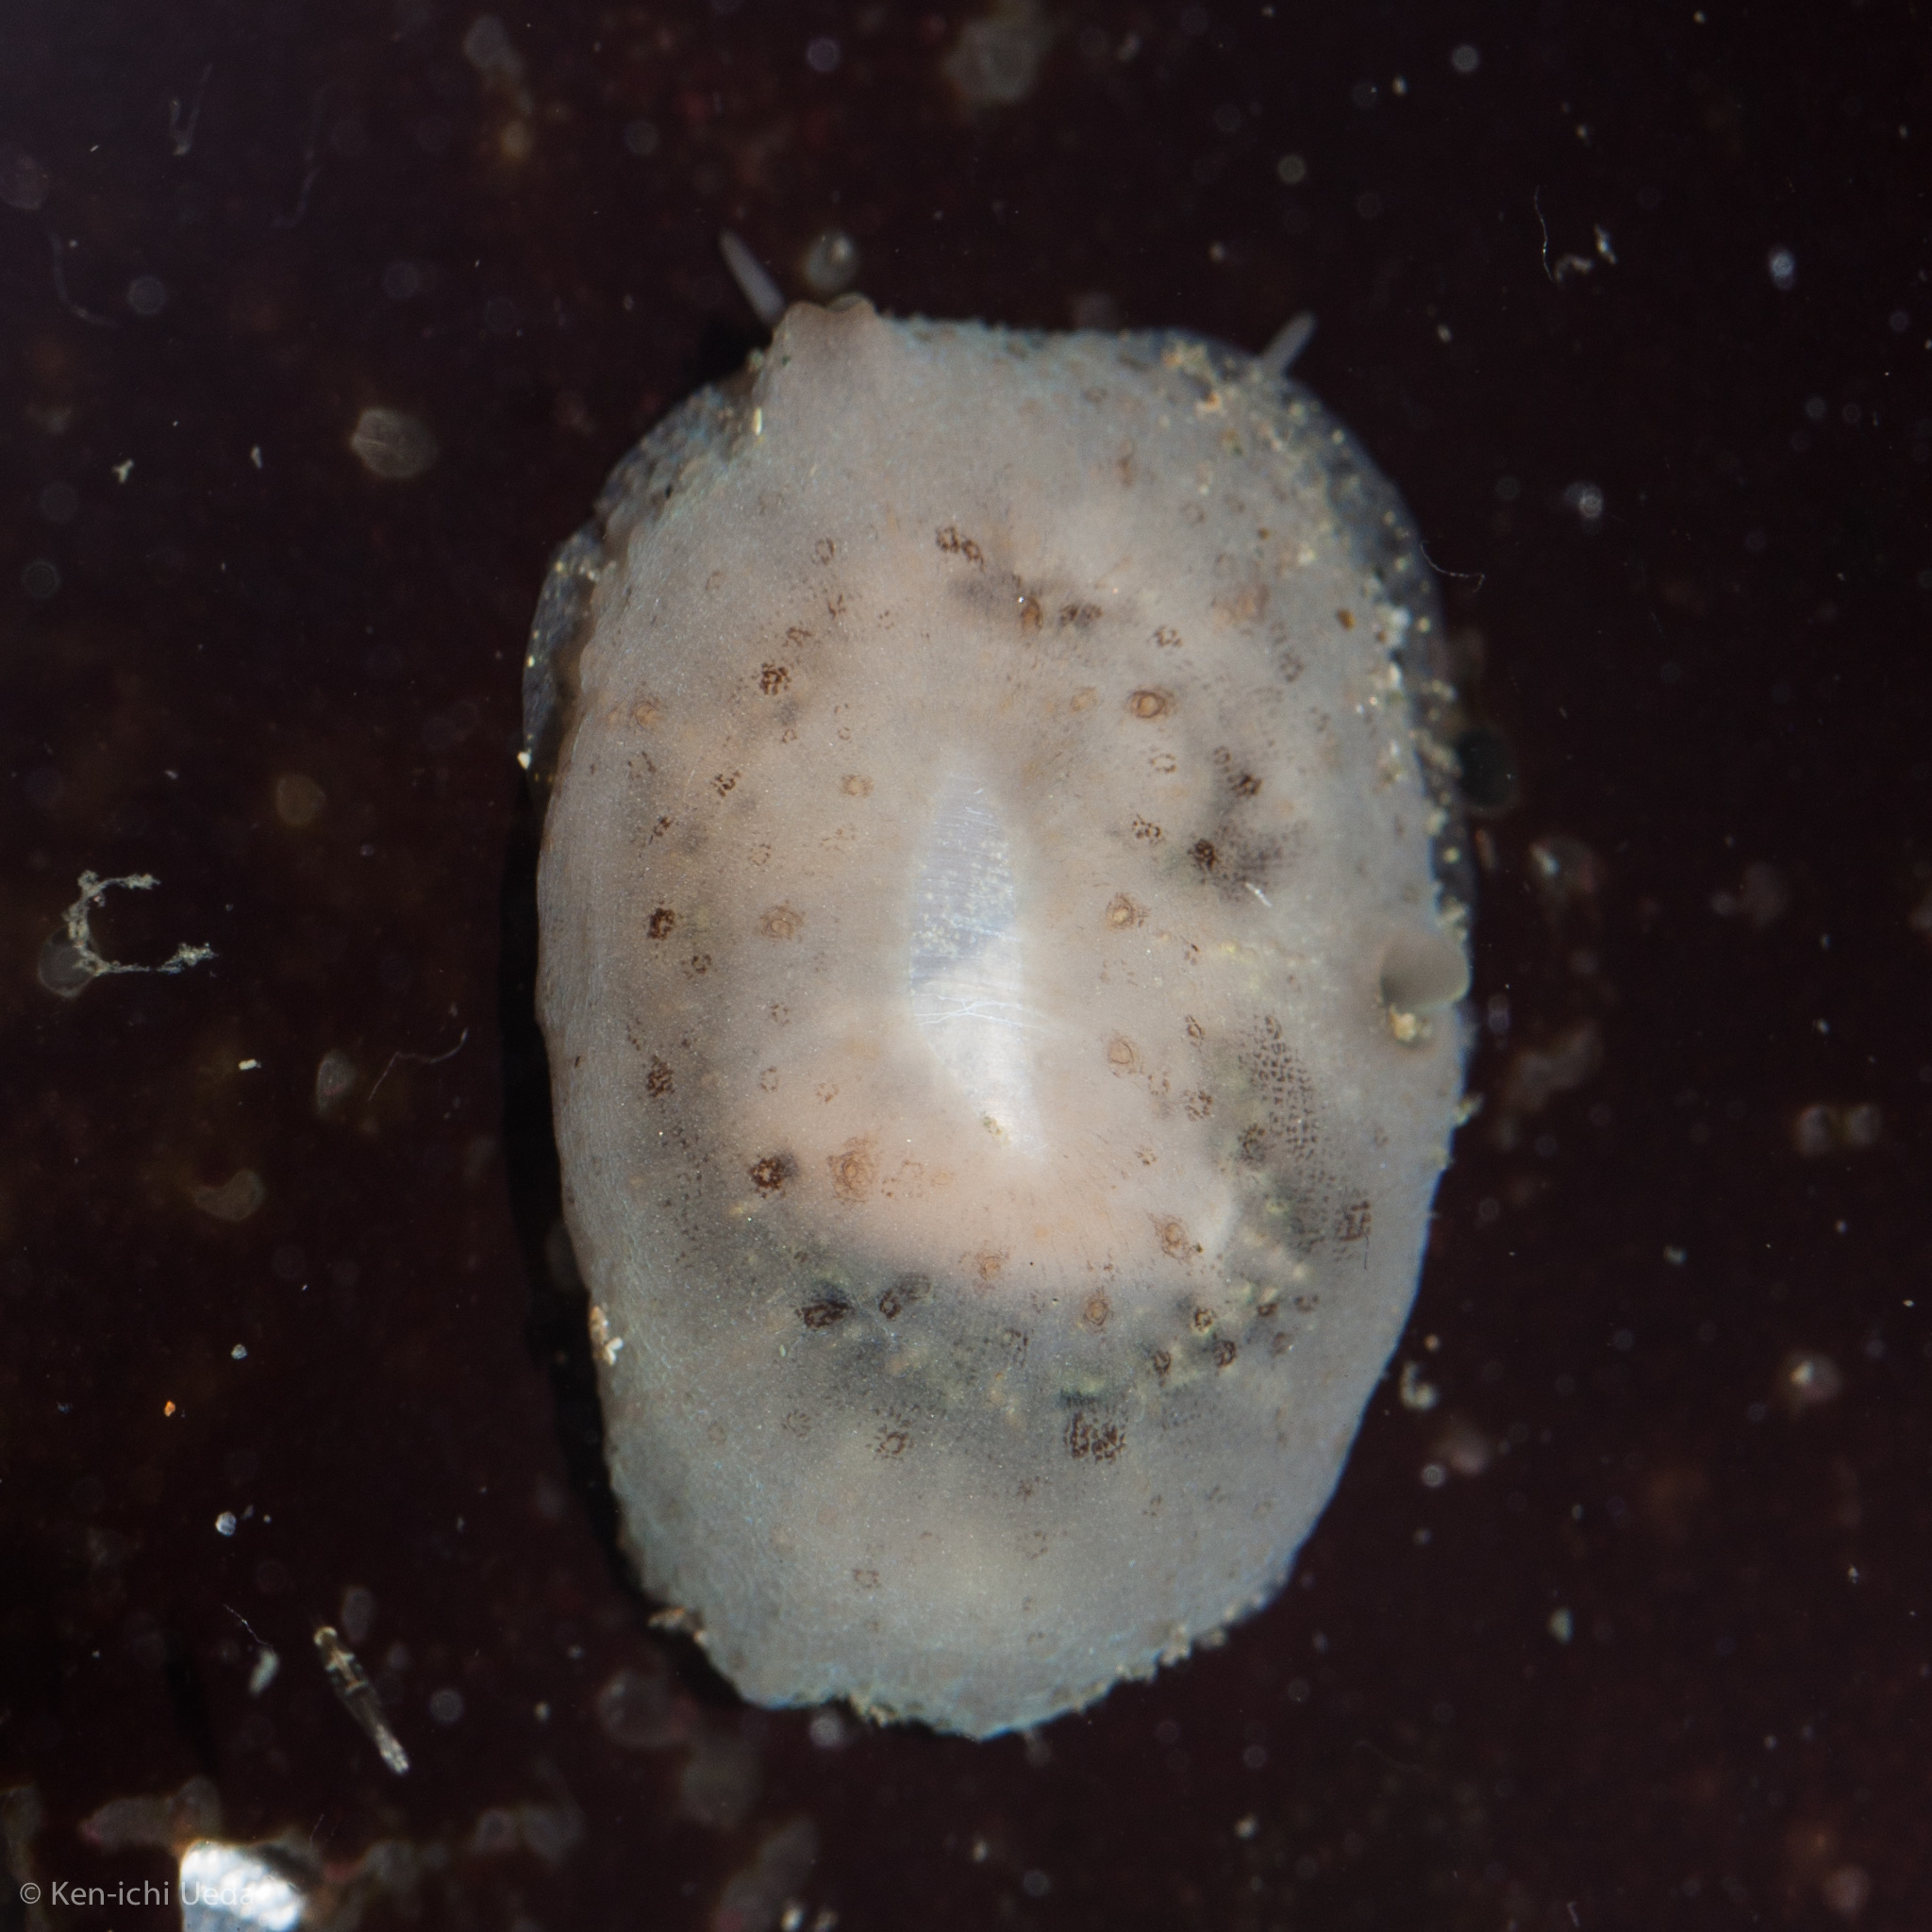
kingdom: Animalia
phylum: Mollusca
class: Gastropoda
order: Littorinimorpha
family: Velutinidae
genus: Marsenina
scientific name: Marsenina rhombica
